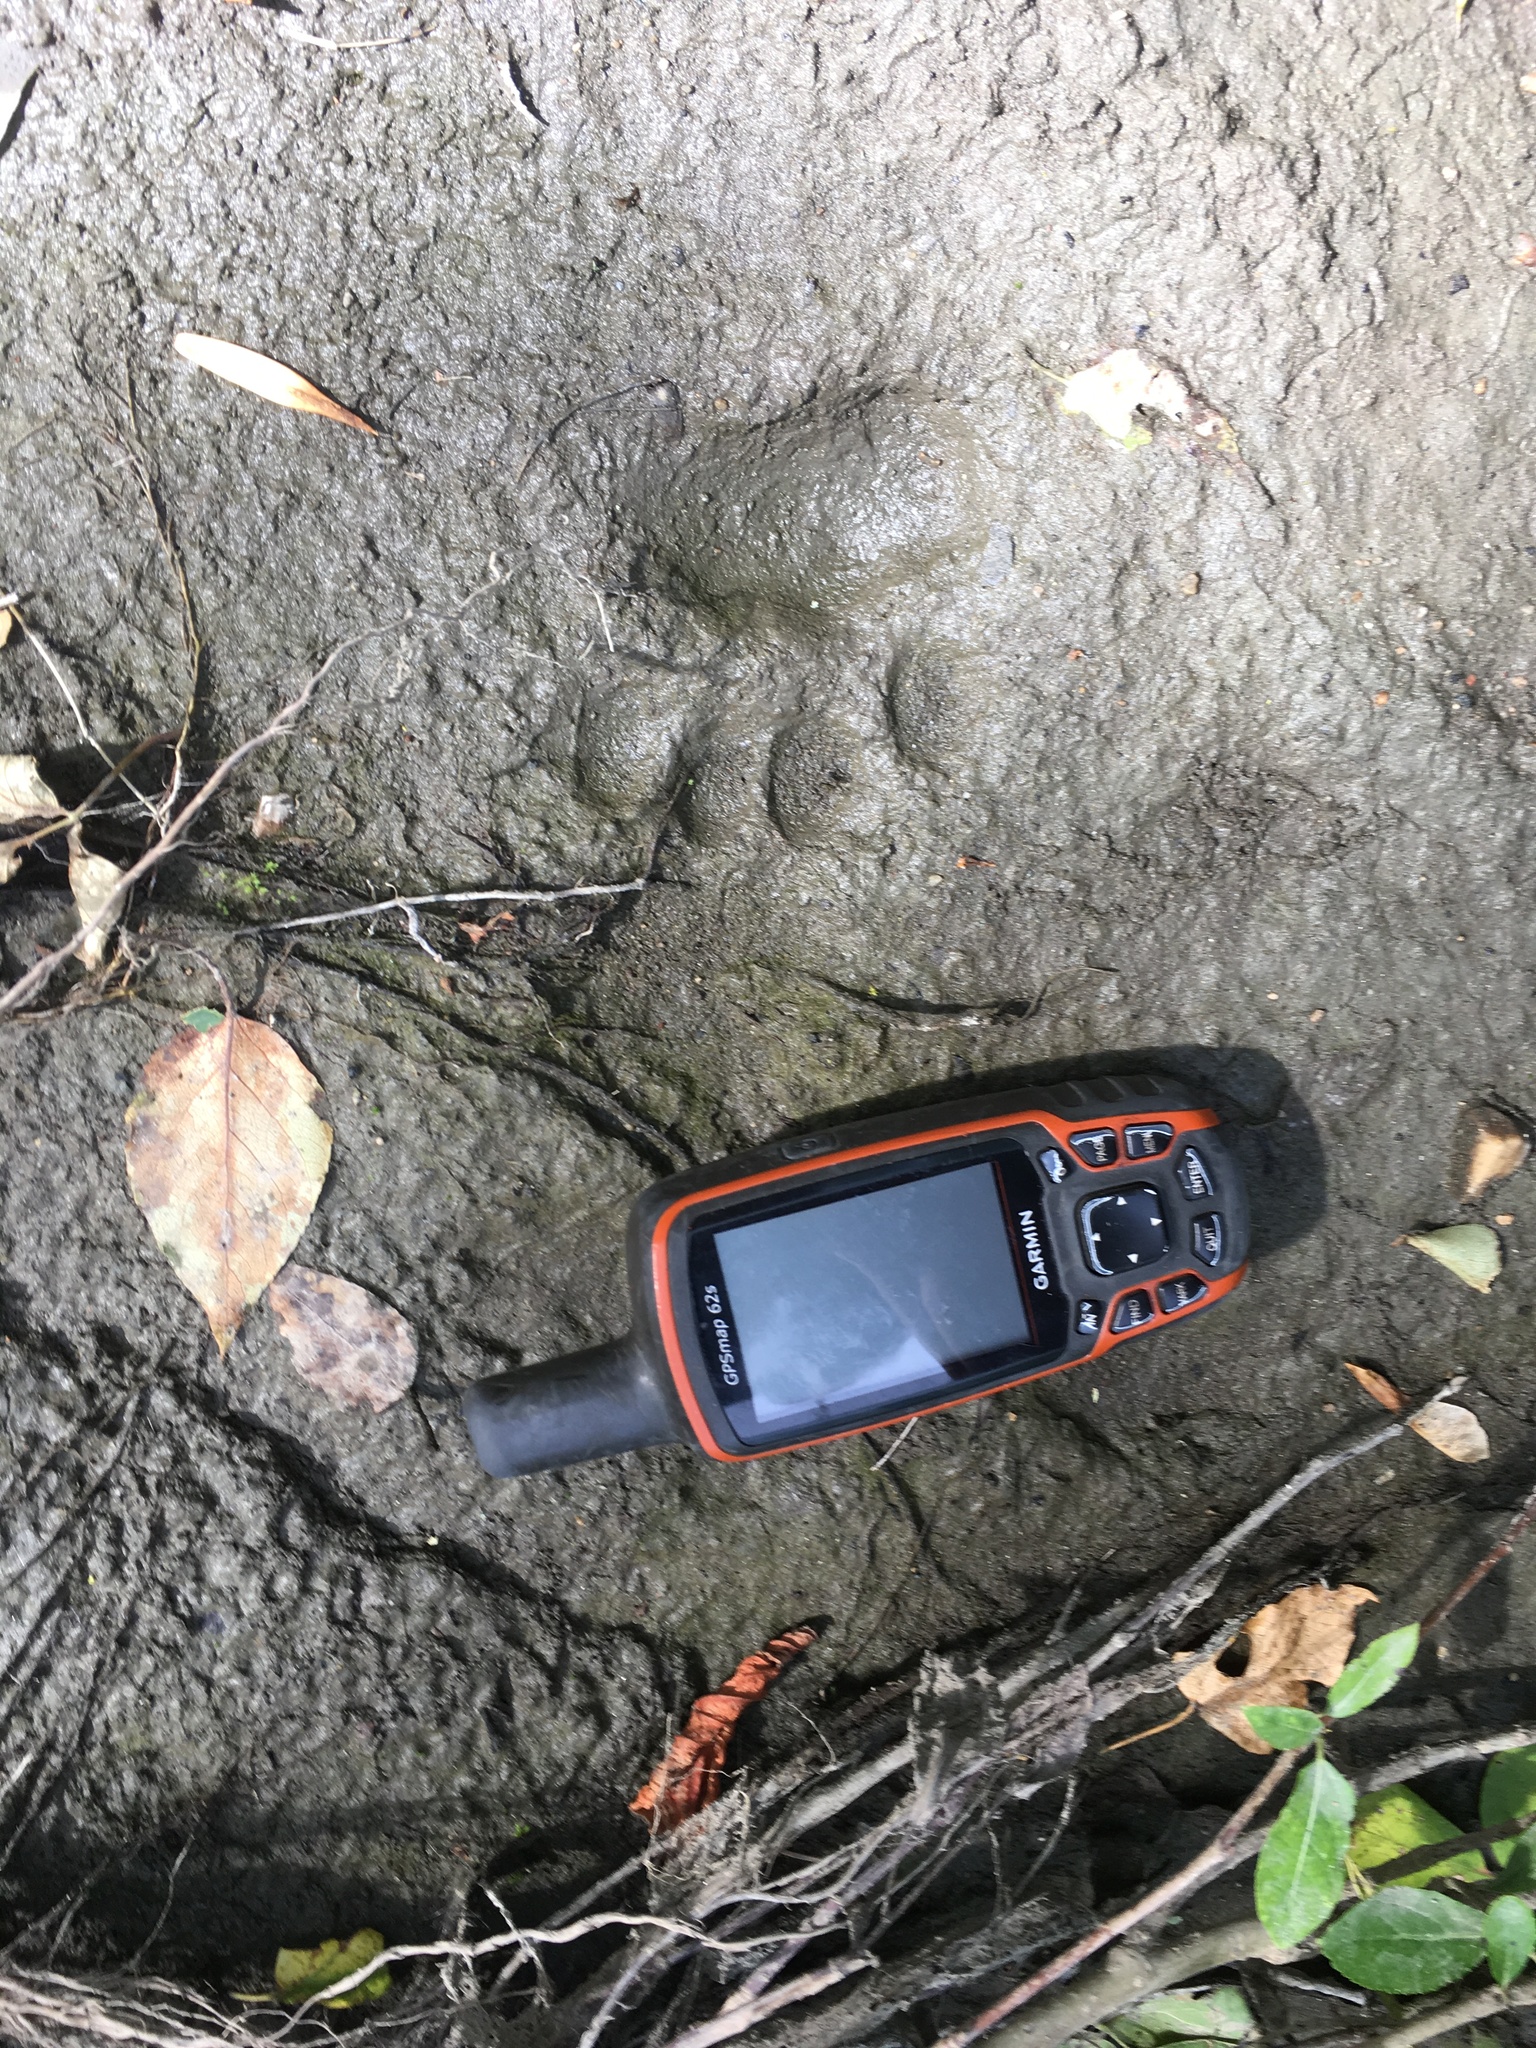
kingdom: Animalia
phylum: Chordata
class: Mammalia
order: Carnivora
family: Ursidae
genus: Ursus
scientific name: Ursus americanus
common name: American black bear
